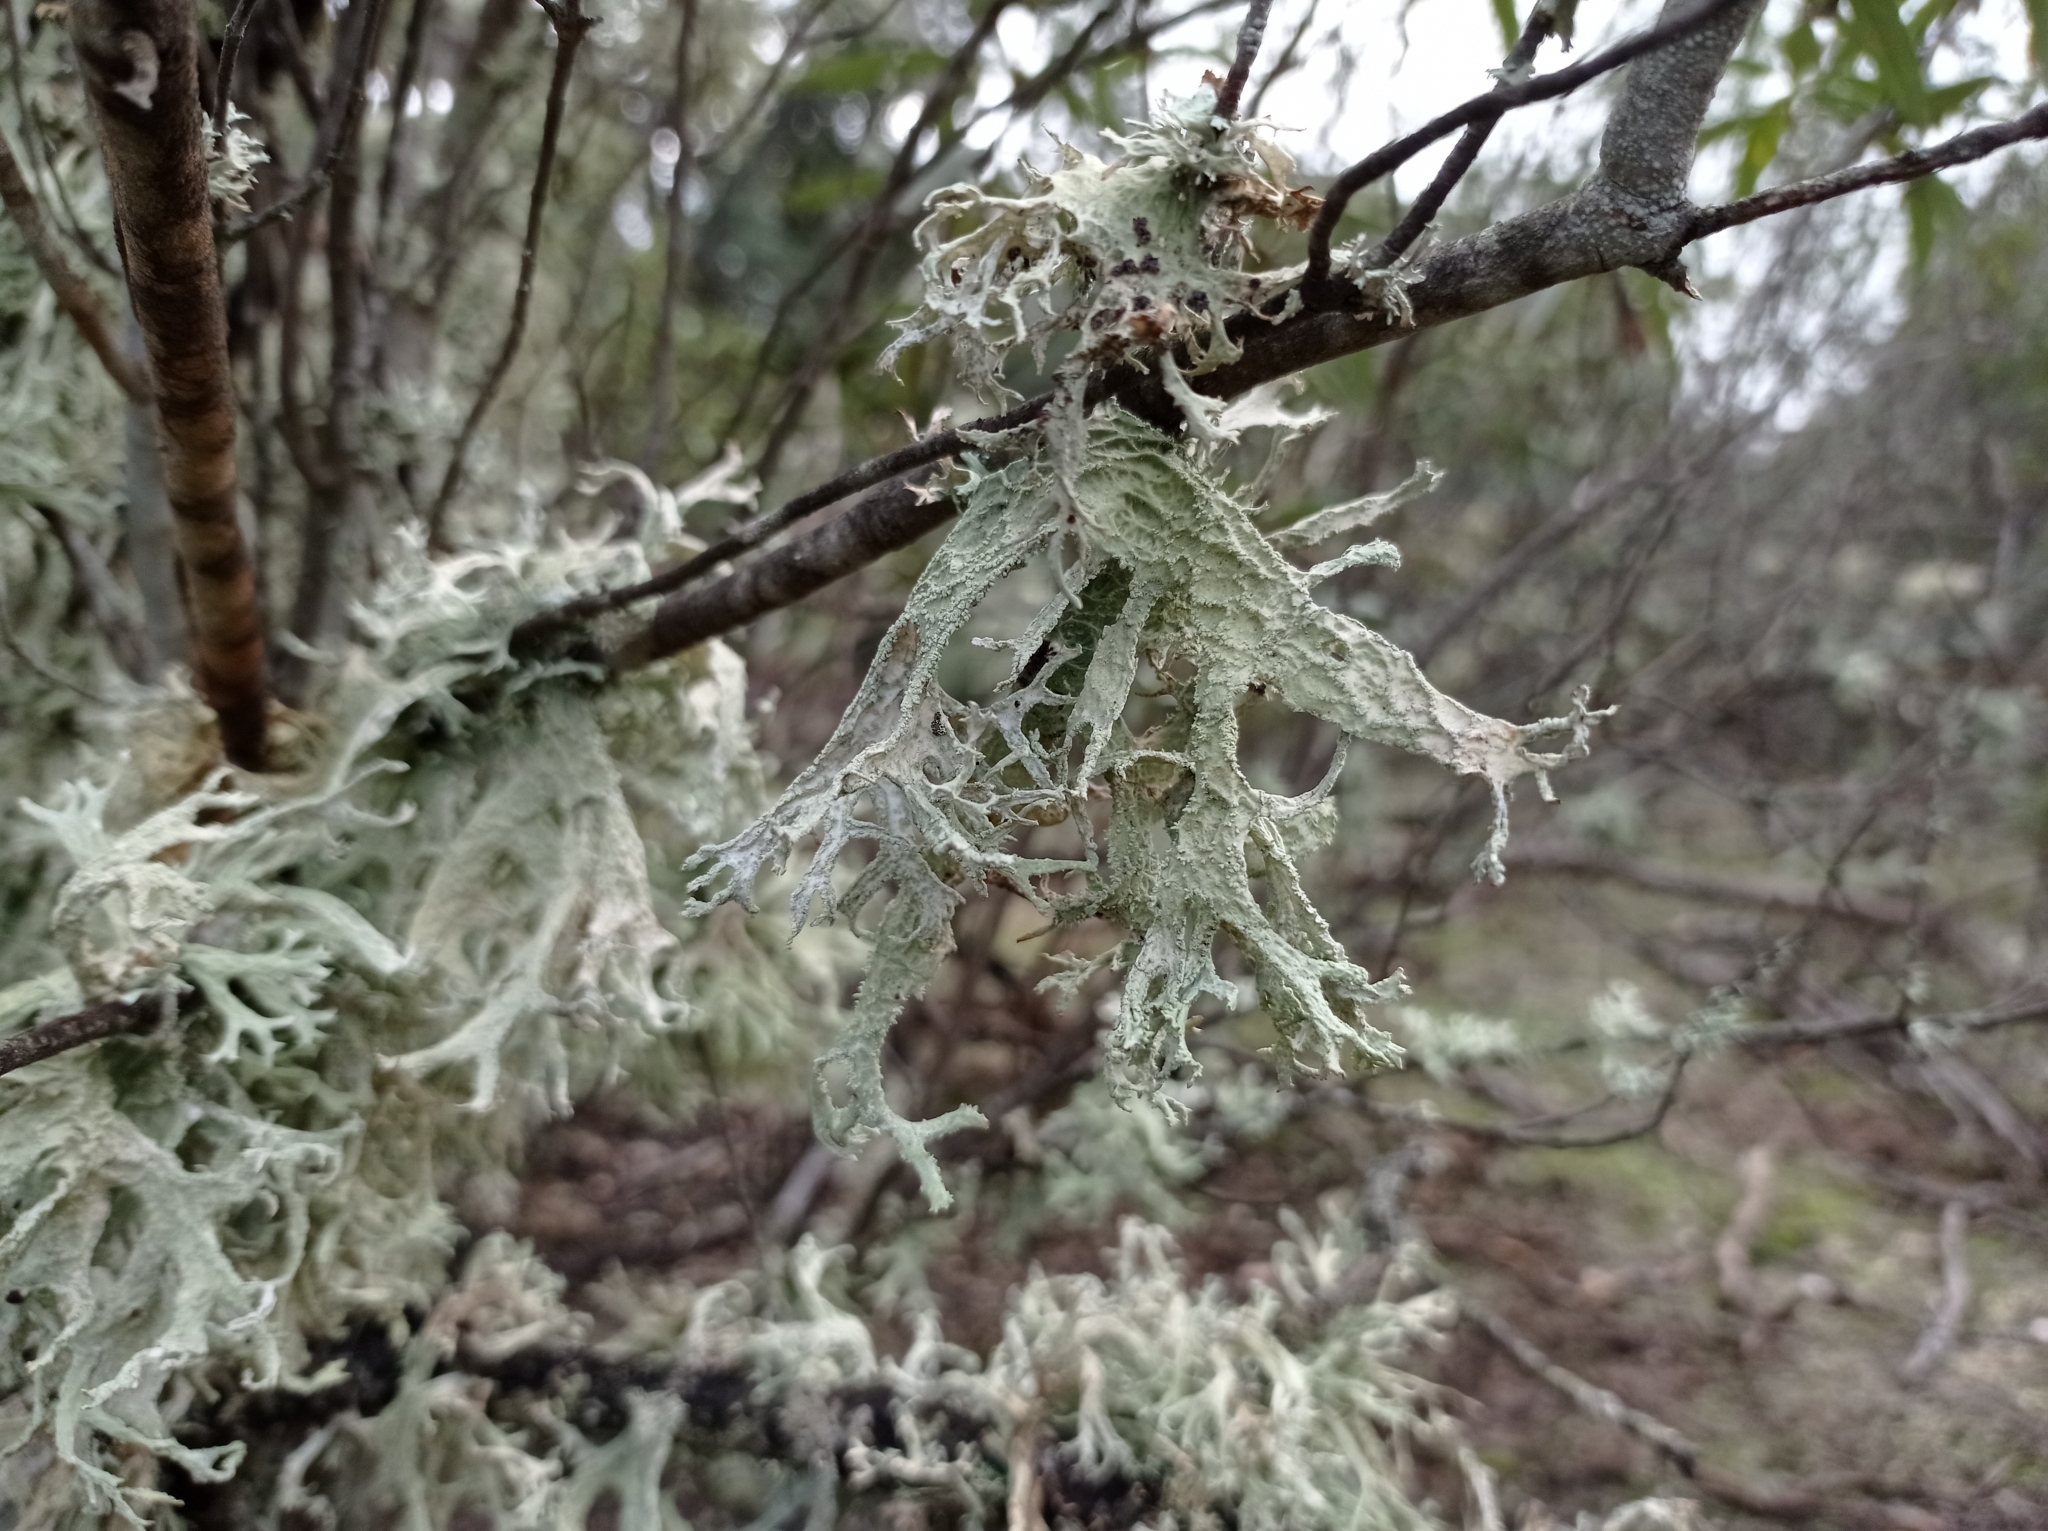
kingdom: Fungi
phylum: Ascomycota
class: Lecanoromycetes
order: Lecanorales
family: Parmeliaceae
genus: Evernia
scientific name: Evernia prunastri
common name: Oak moss
